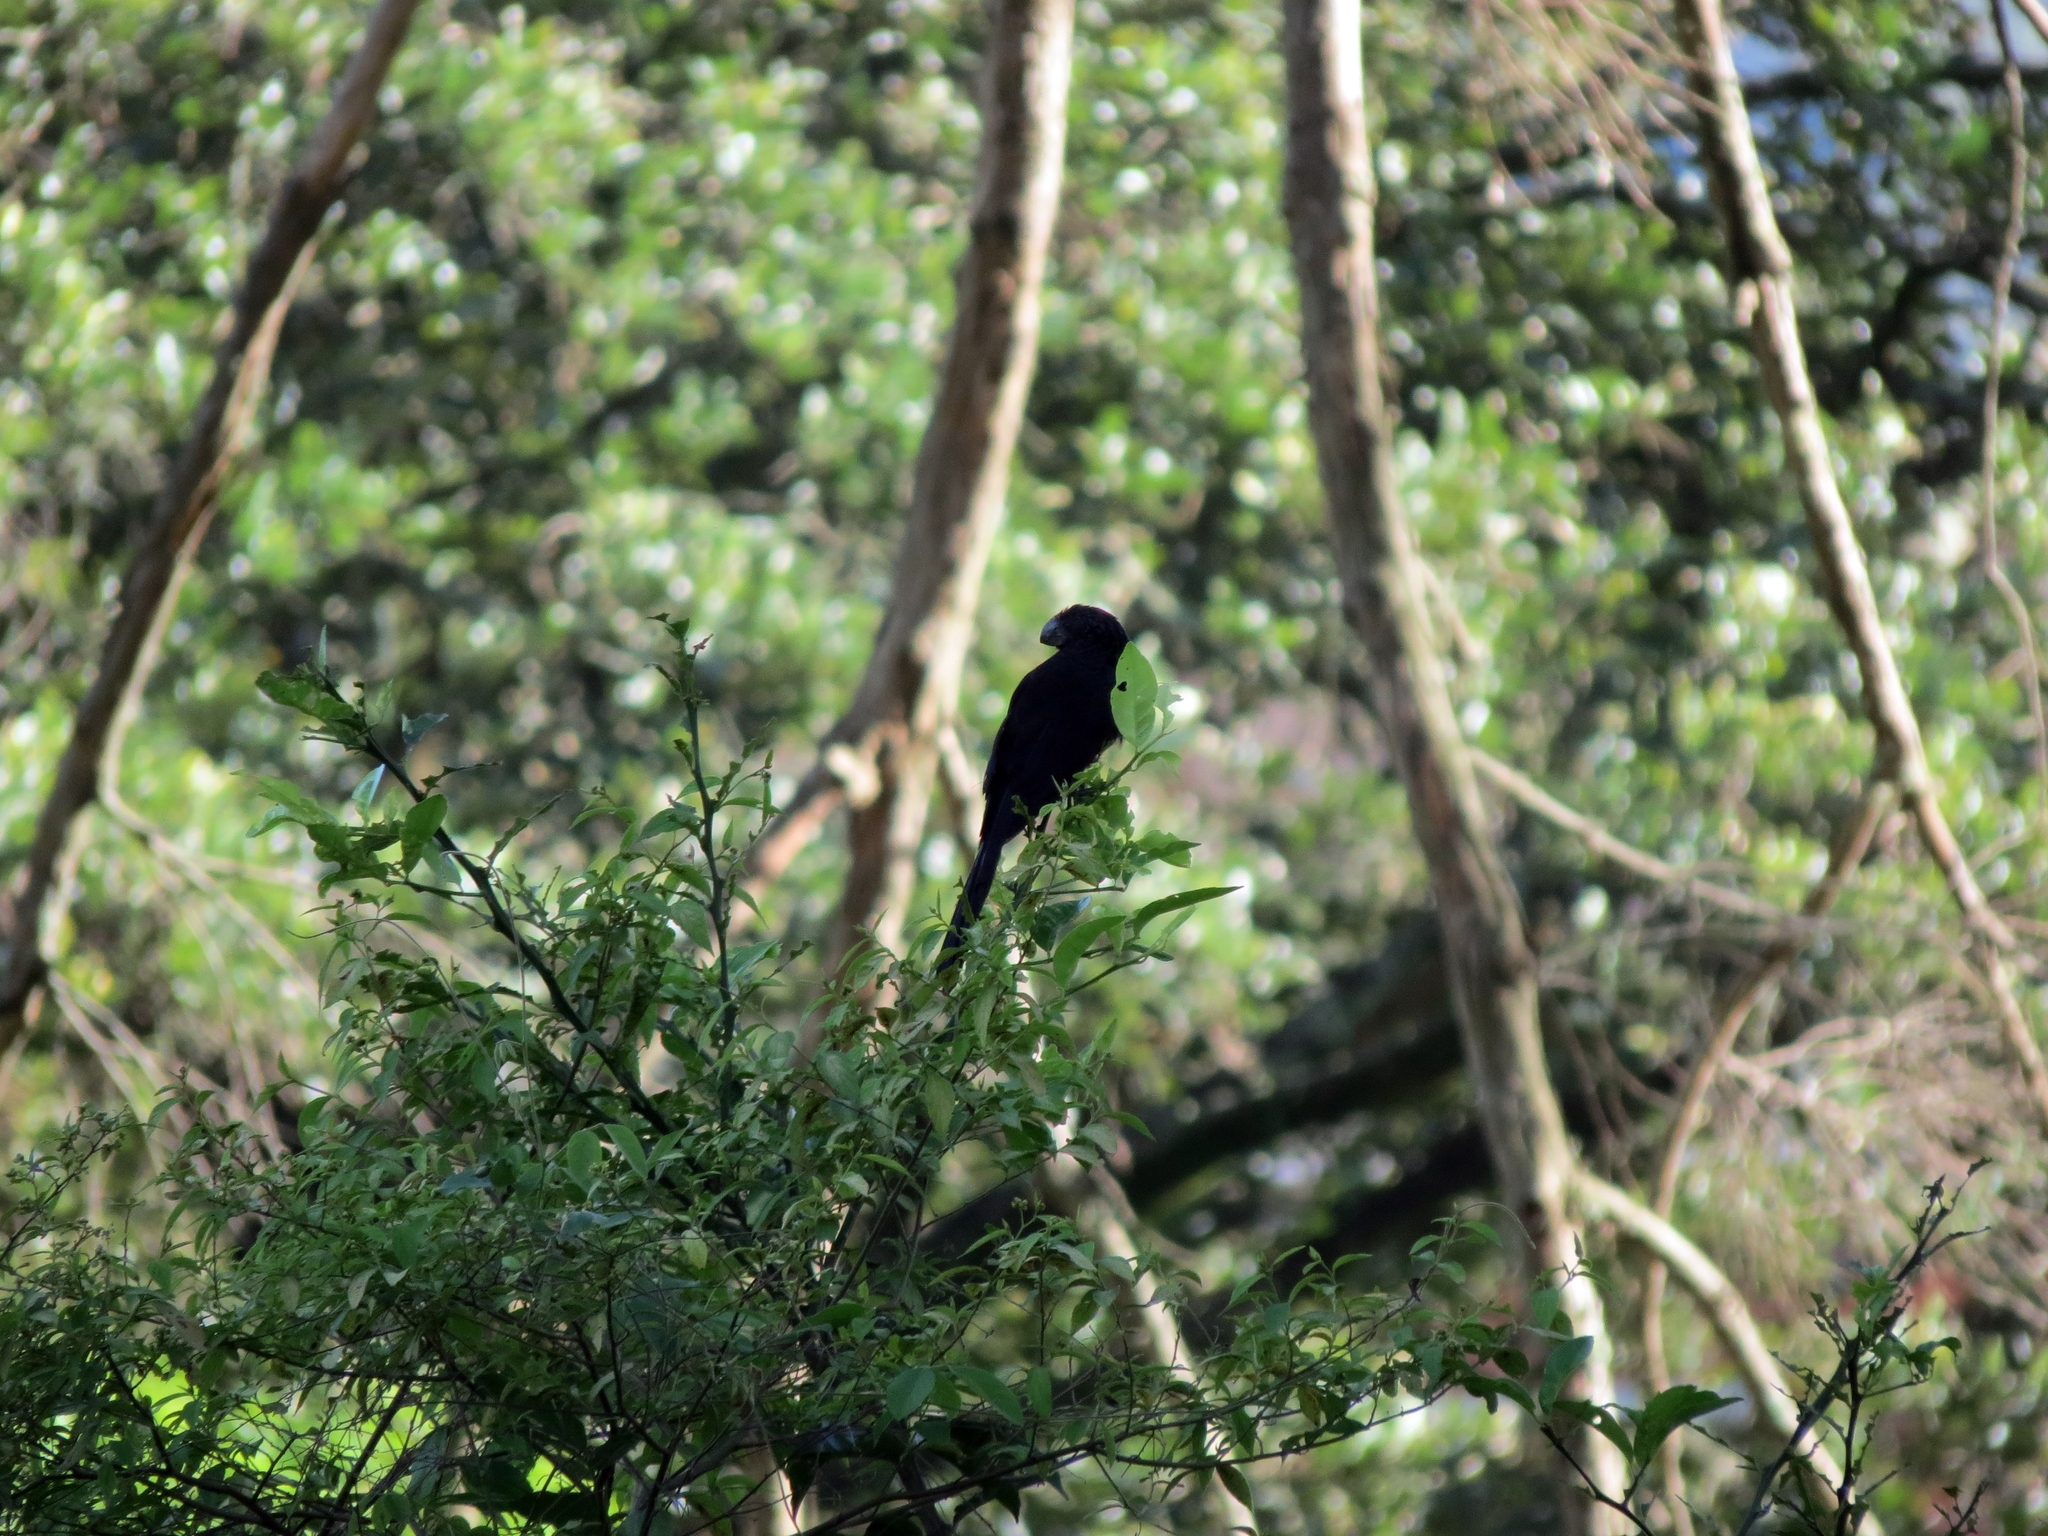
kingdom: Animalia
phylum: Chordata
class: Aves
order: Cuculiformes
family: Cuculidae
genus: Crotophaga
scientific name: Crotophaga ani
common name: Smooth-billed ani
